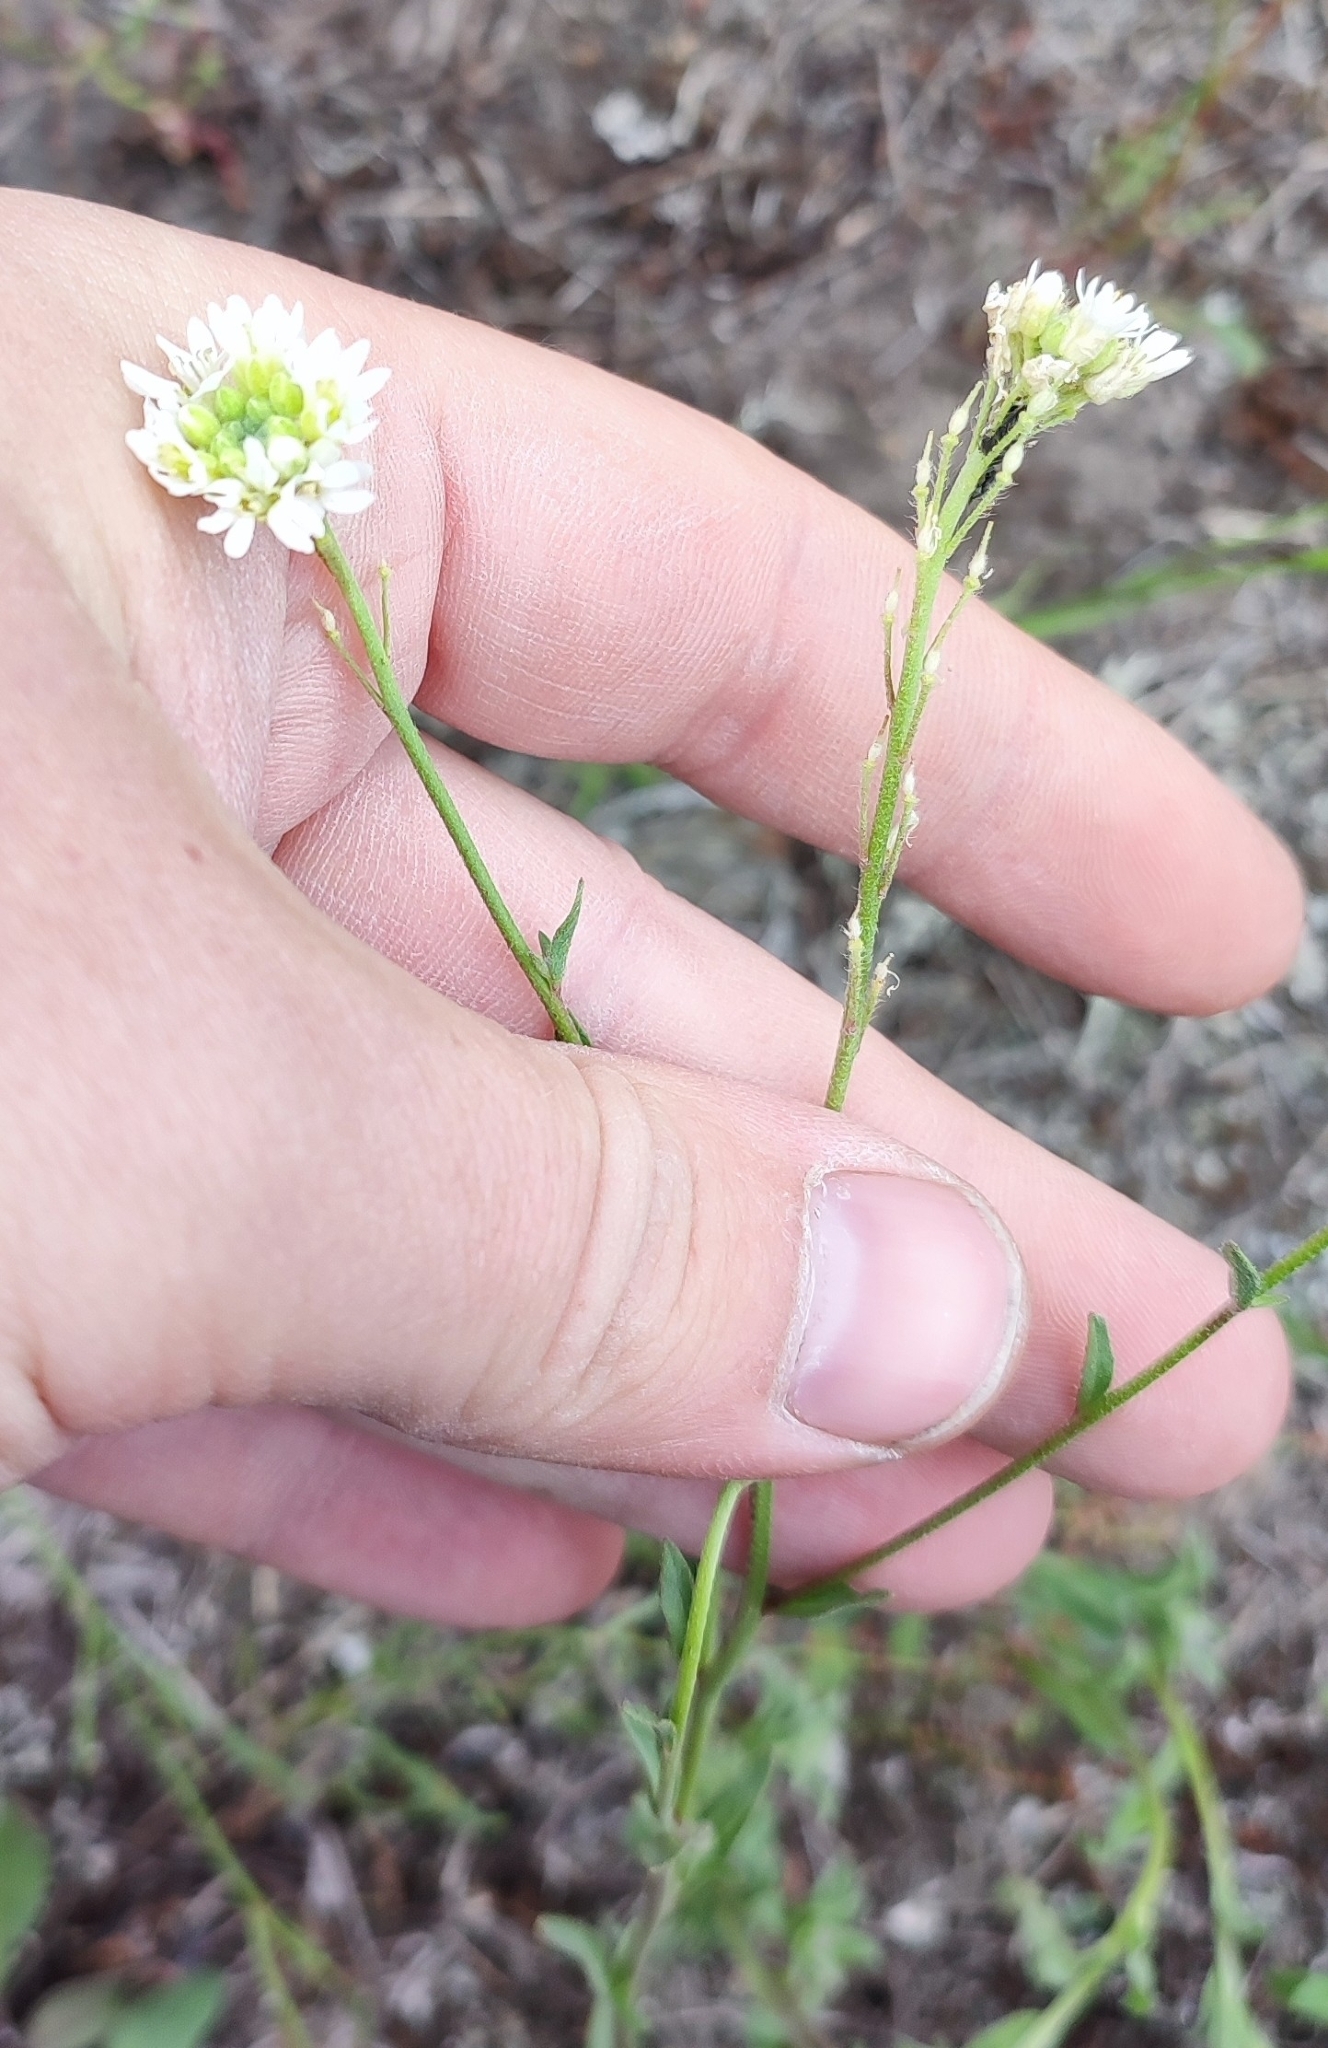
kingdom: Plantae
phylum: Tracheophyta
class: Magnoliopsida
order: Brassicales
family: Brassicaceae
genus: Berteroa
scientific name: Berteroa incana
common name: Hoary alison
